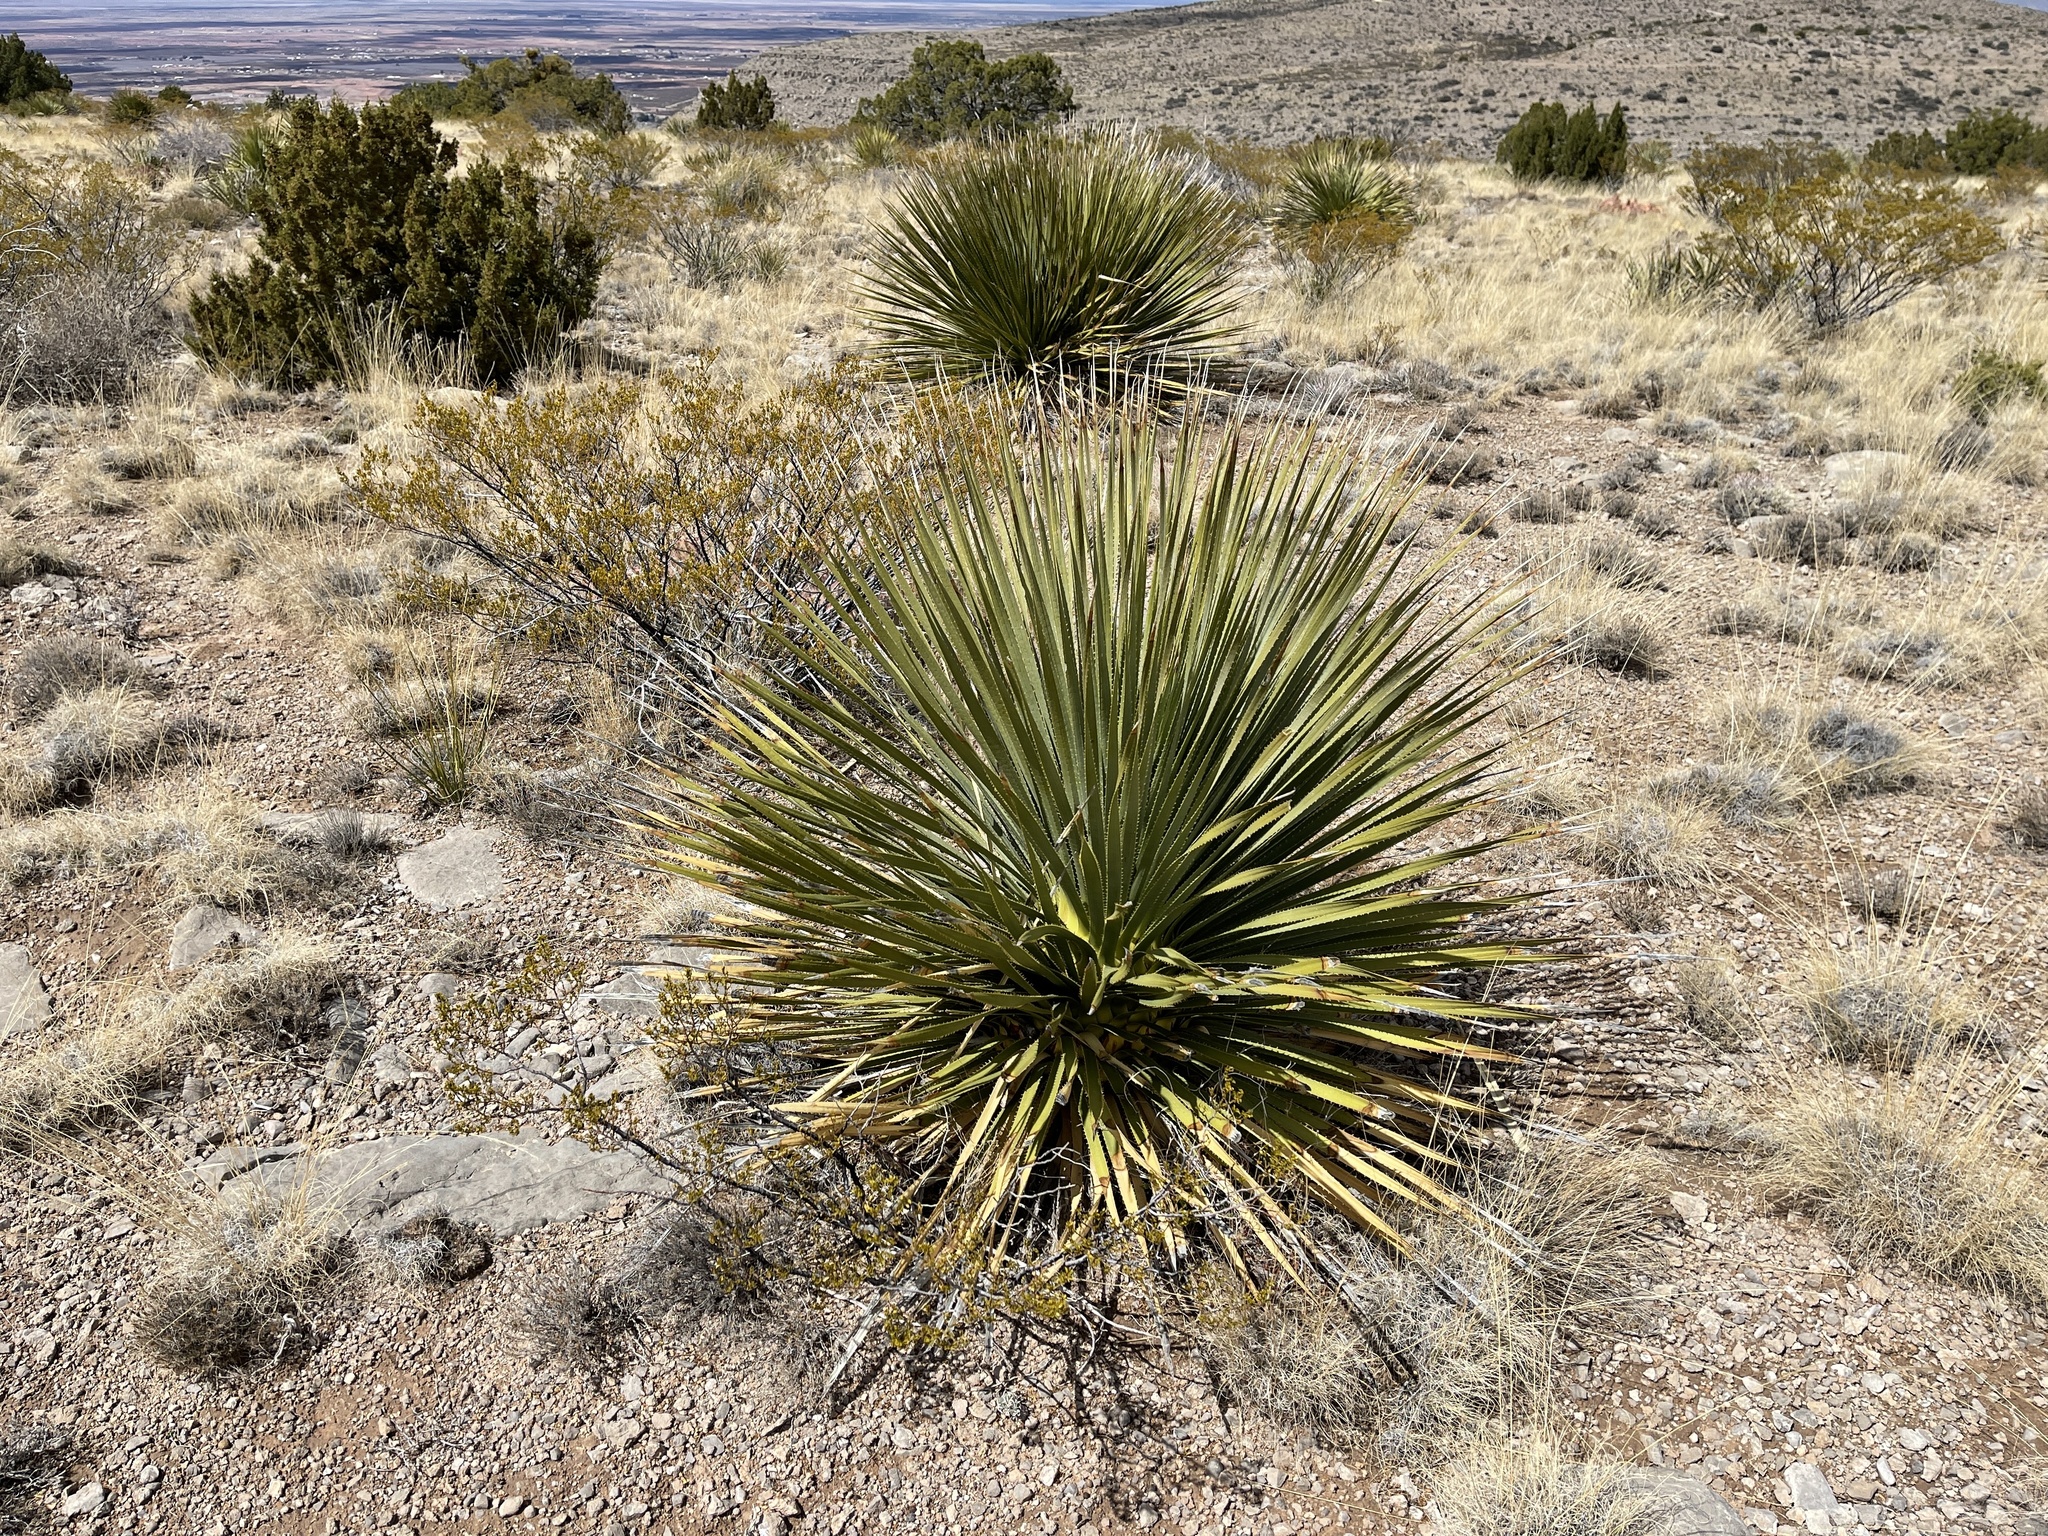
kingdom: Plantae
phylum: Tracheophyta
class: Liliopsida
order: Asparagales
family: Asparagaceae
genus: Dasylirion
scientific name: Dasylirion wheeleri
